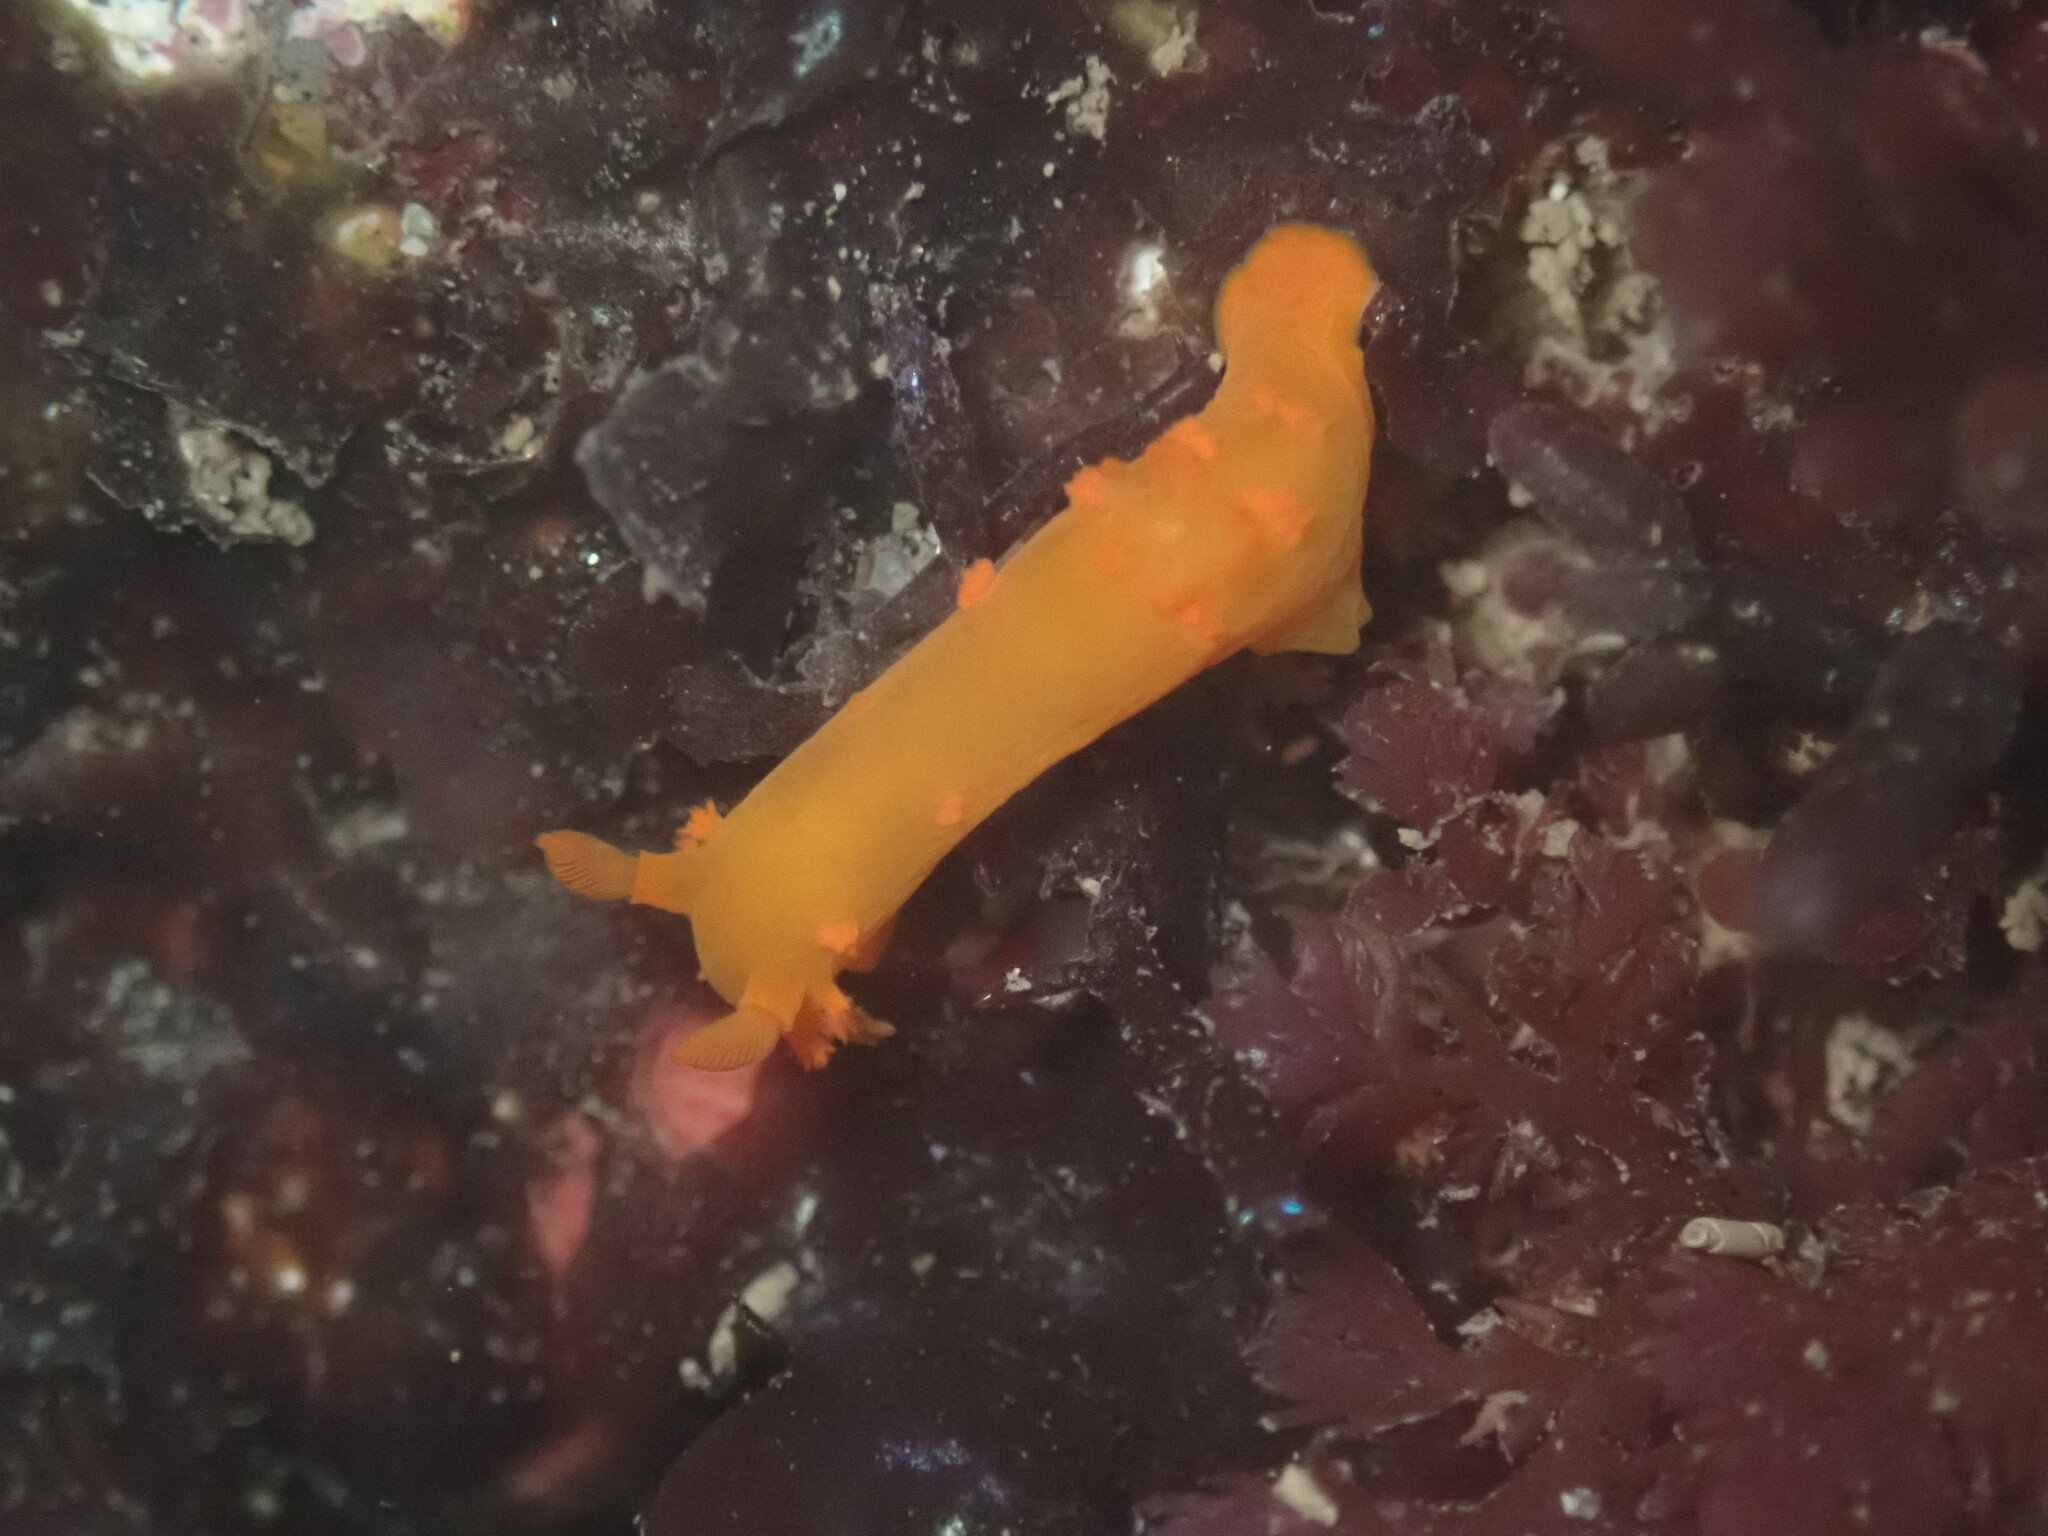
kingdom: Animalia
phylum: Mollusca
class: Gastropoda
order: Nudibranchia
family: Polyceridae
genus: Triopha
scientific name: Triopha maculata
